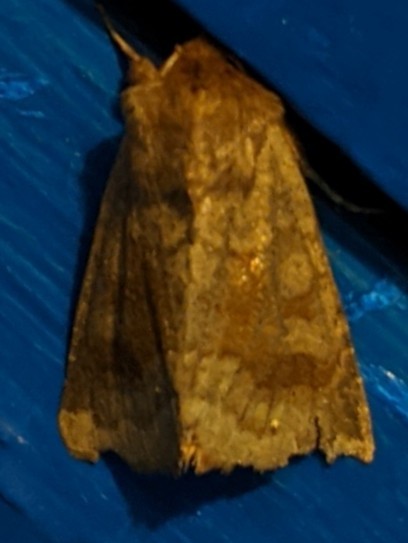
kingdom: Animalia
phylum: Arthropoda
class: Insecta
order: Lepidoptera
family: Noctuidae
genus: Nephelodes
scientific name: Nephelodes minians
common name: Bronzed cutworm
